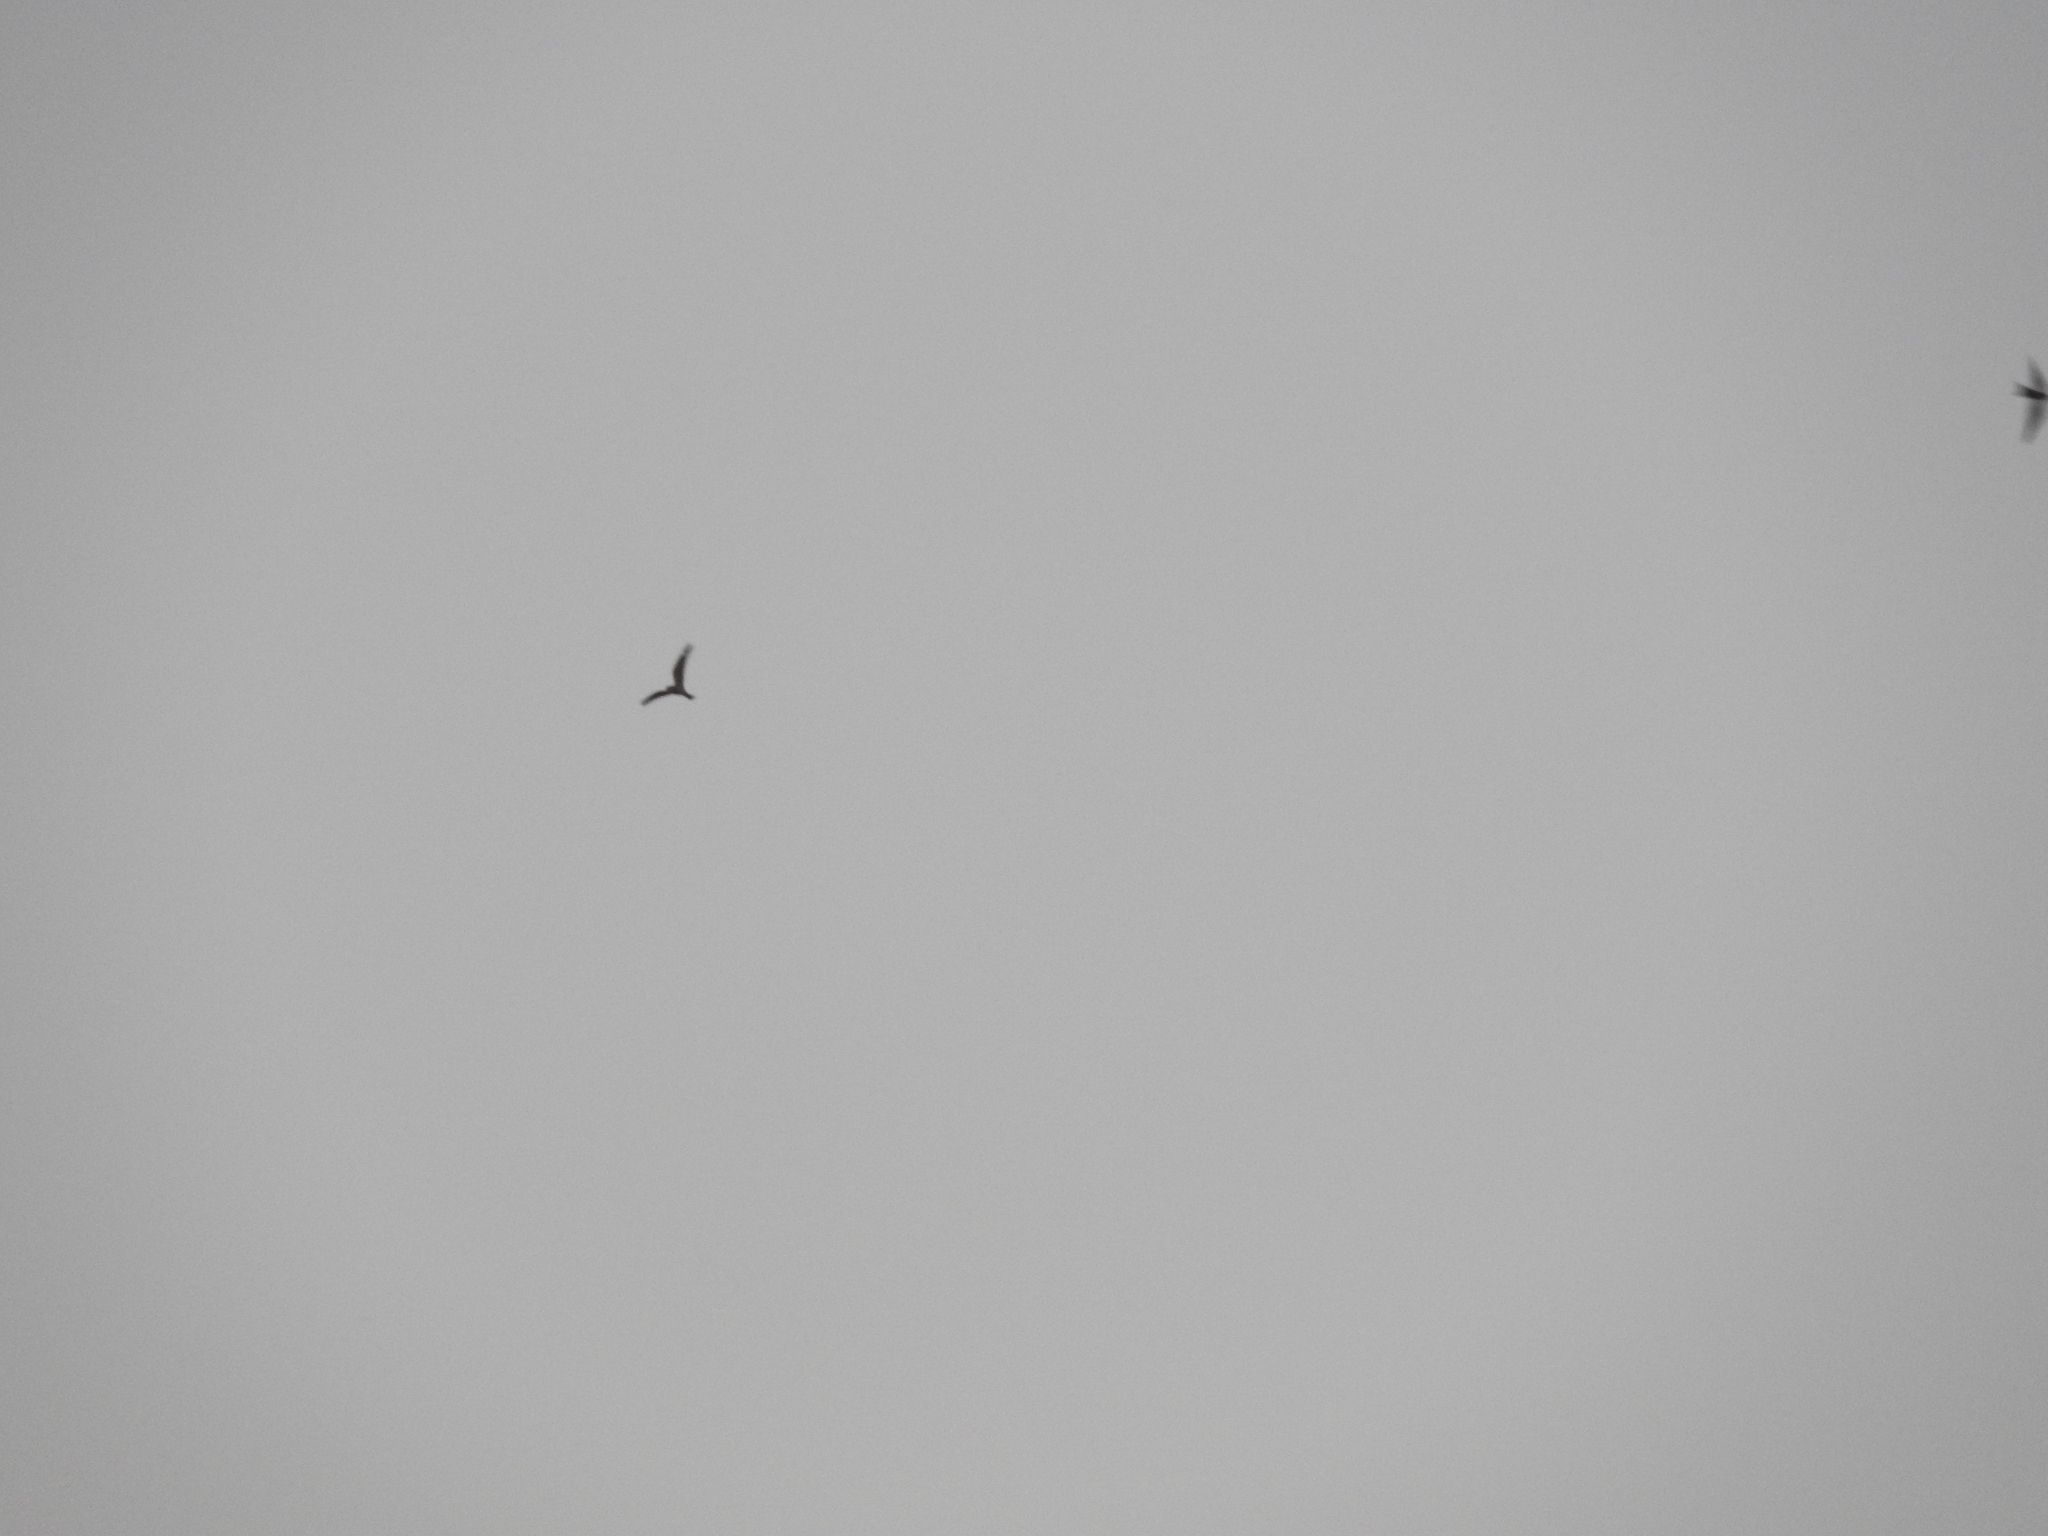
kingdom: Animalia
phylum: Chordata
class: Aves
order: Caprimulgiformes
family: Caprimulgidae
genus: Chordeiles
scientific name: Chordeiles acutipennis
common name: Lesser nighthawk
